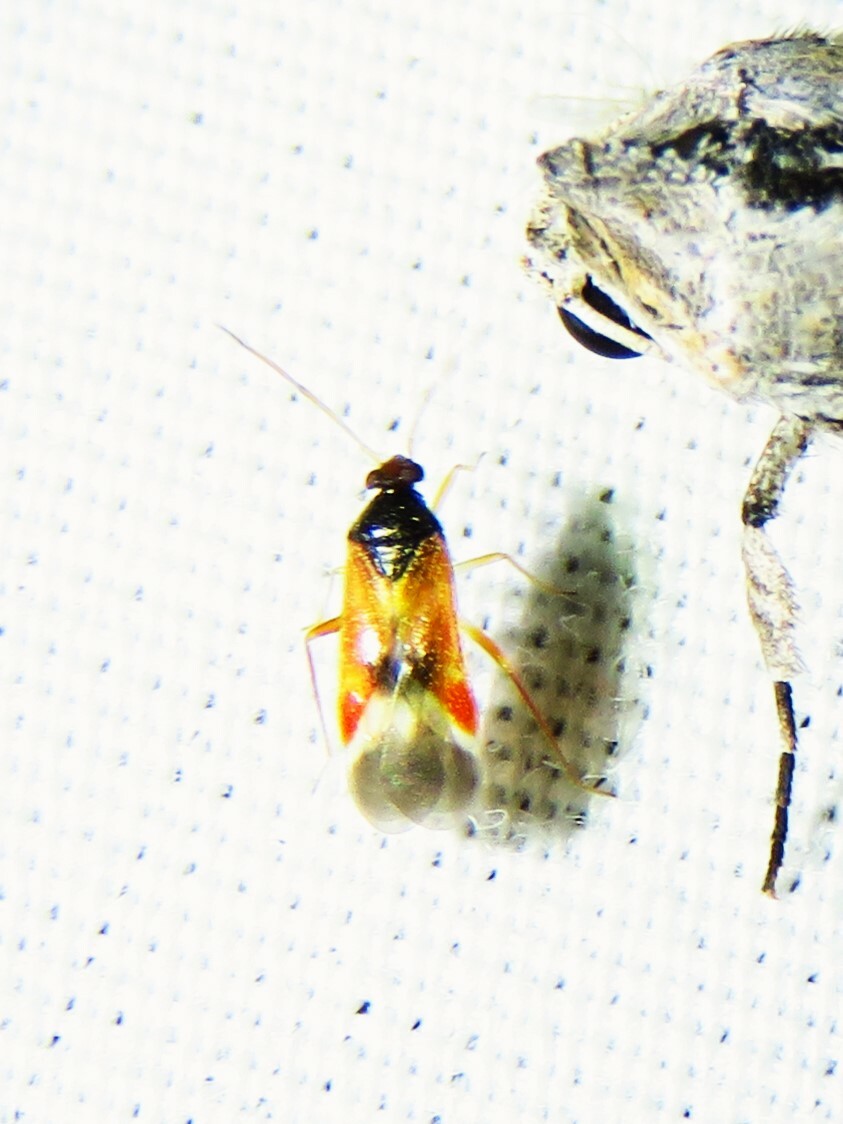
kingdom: Animalia
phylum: Arthropoda
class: Insecta
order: Hemiptera
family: Miridae
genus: Ceratocapsus
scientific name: Ceratocapsus apicalis
